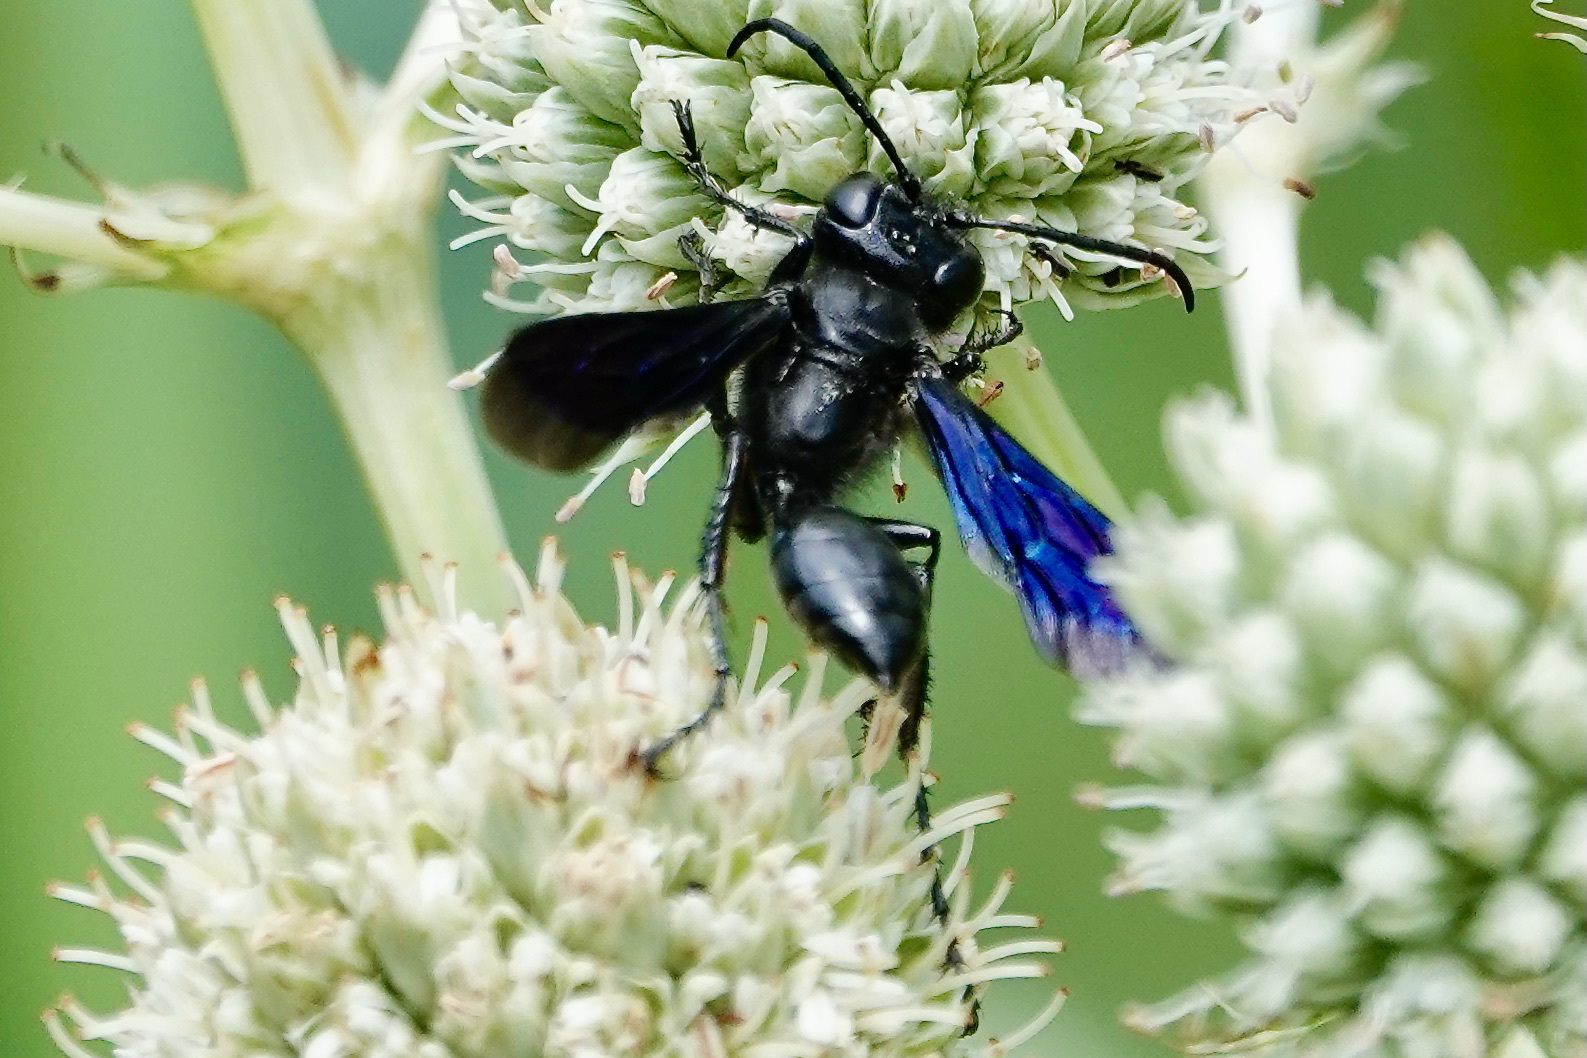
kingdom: Animalia
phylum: Arthropoda
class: Insecta
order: Hymenoptera
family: Sphecidae
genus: Isodontia
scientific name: Isodontia philadelphica
